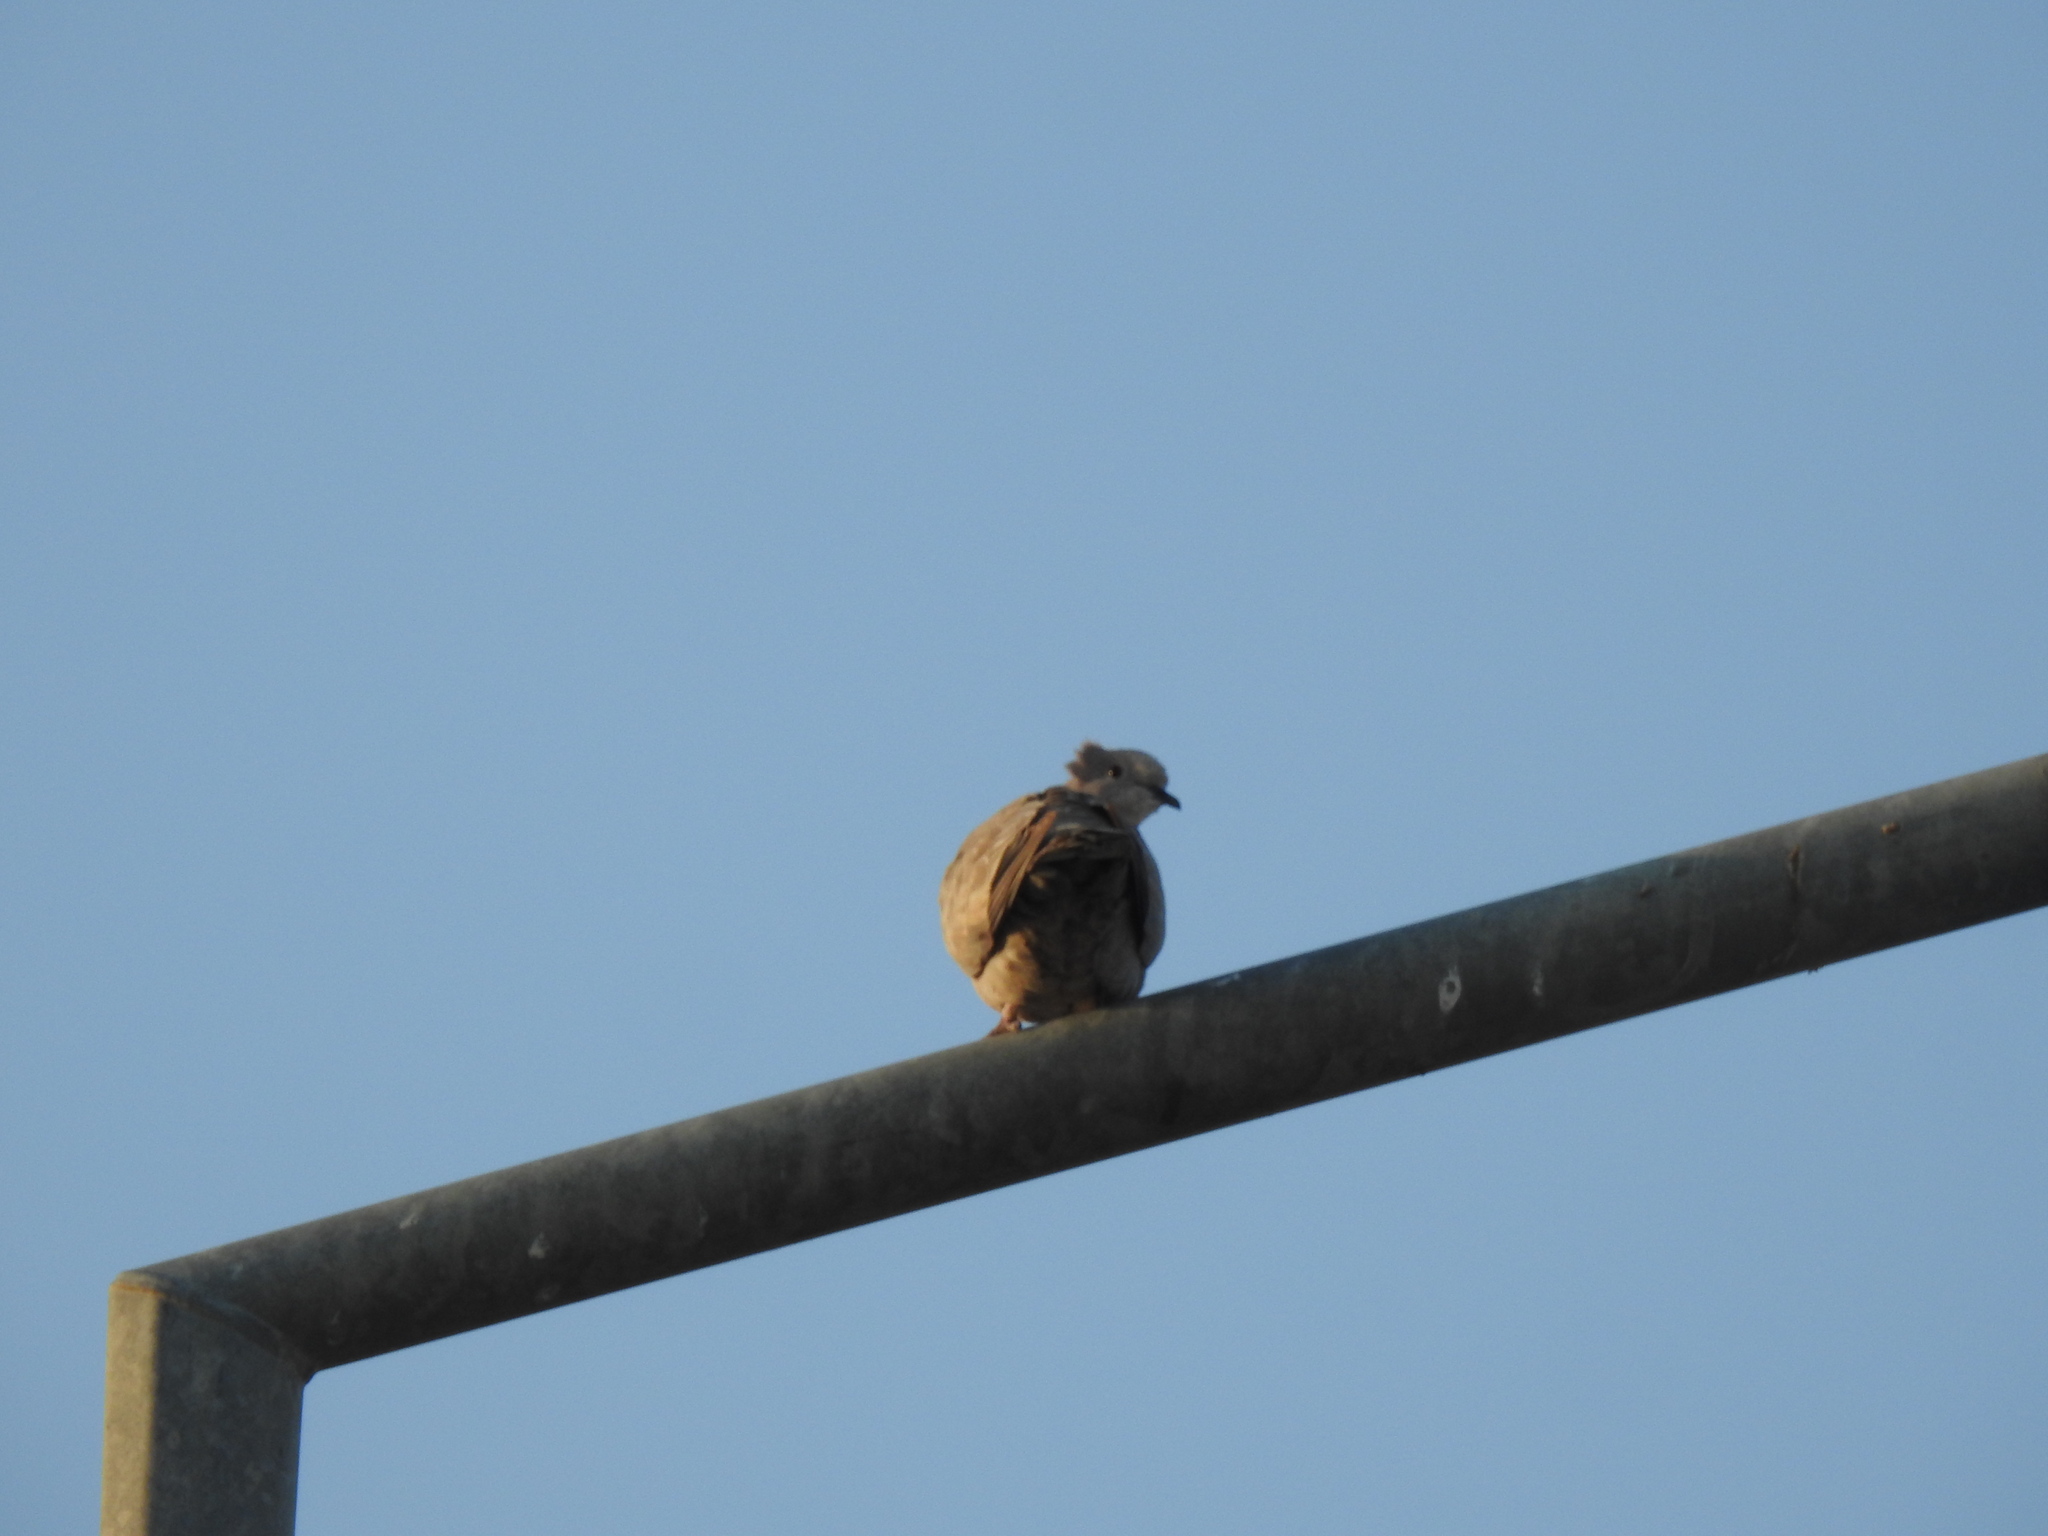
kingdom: Animalia
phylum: Chordata
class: Aves
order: Columbiformes
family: Columbidae
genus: Streptopelia
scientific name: Streptopelia decaocto
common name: Eurasian collared dove
